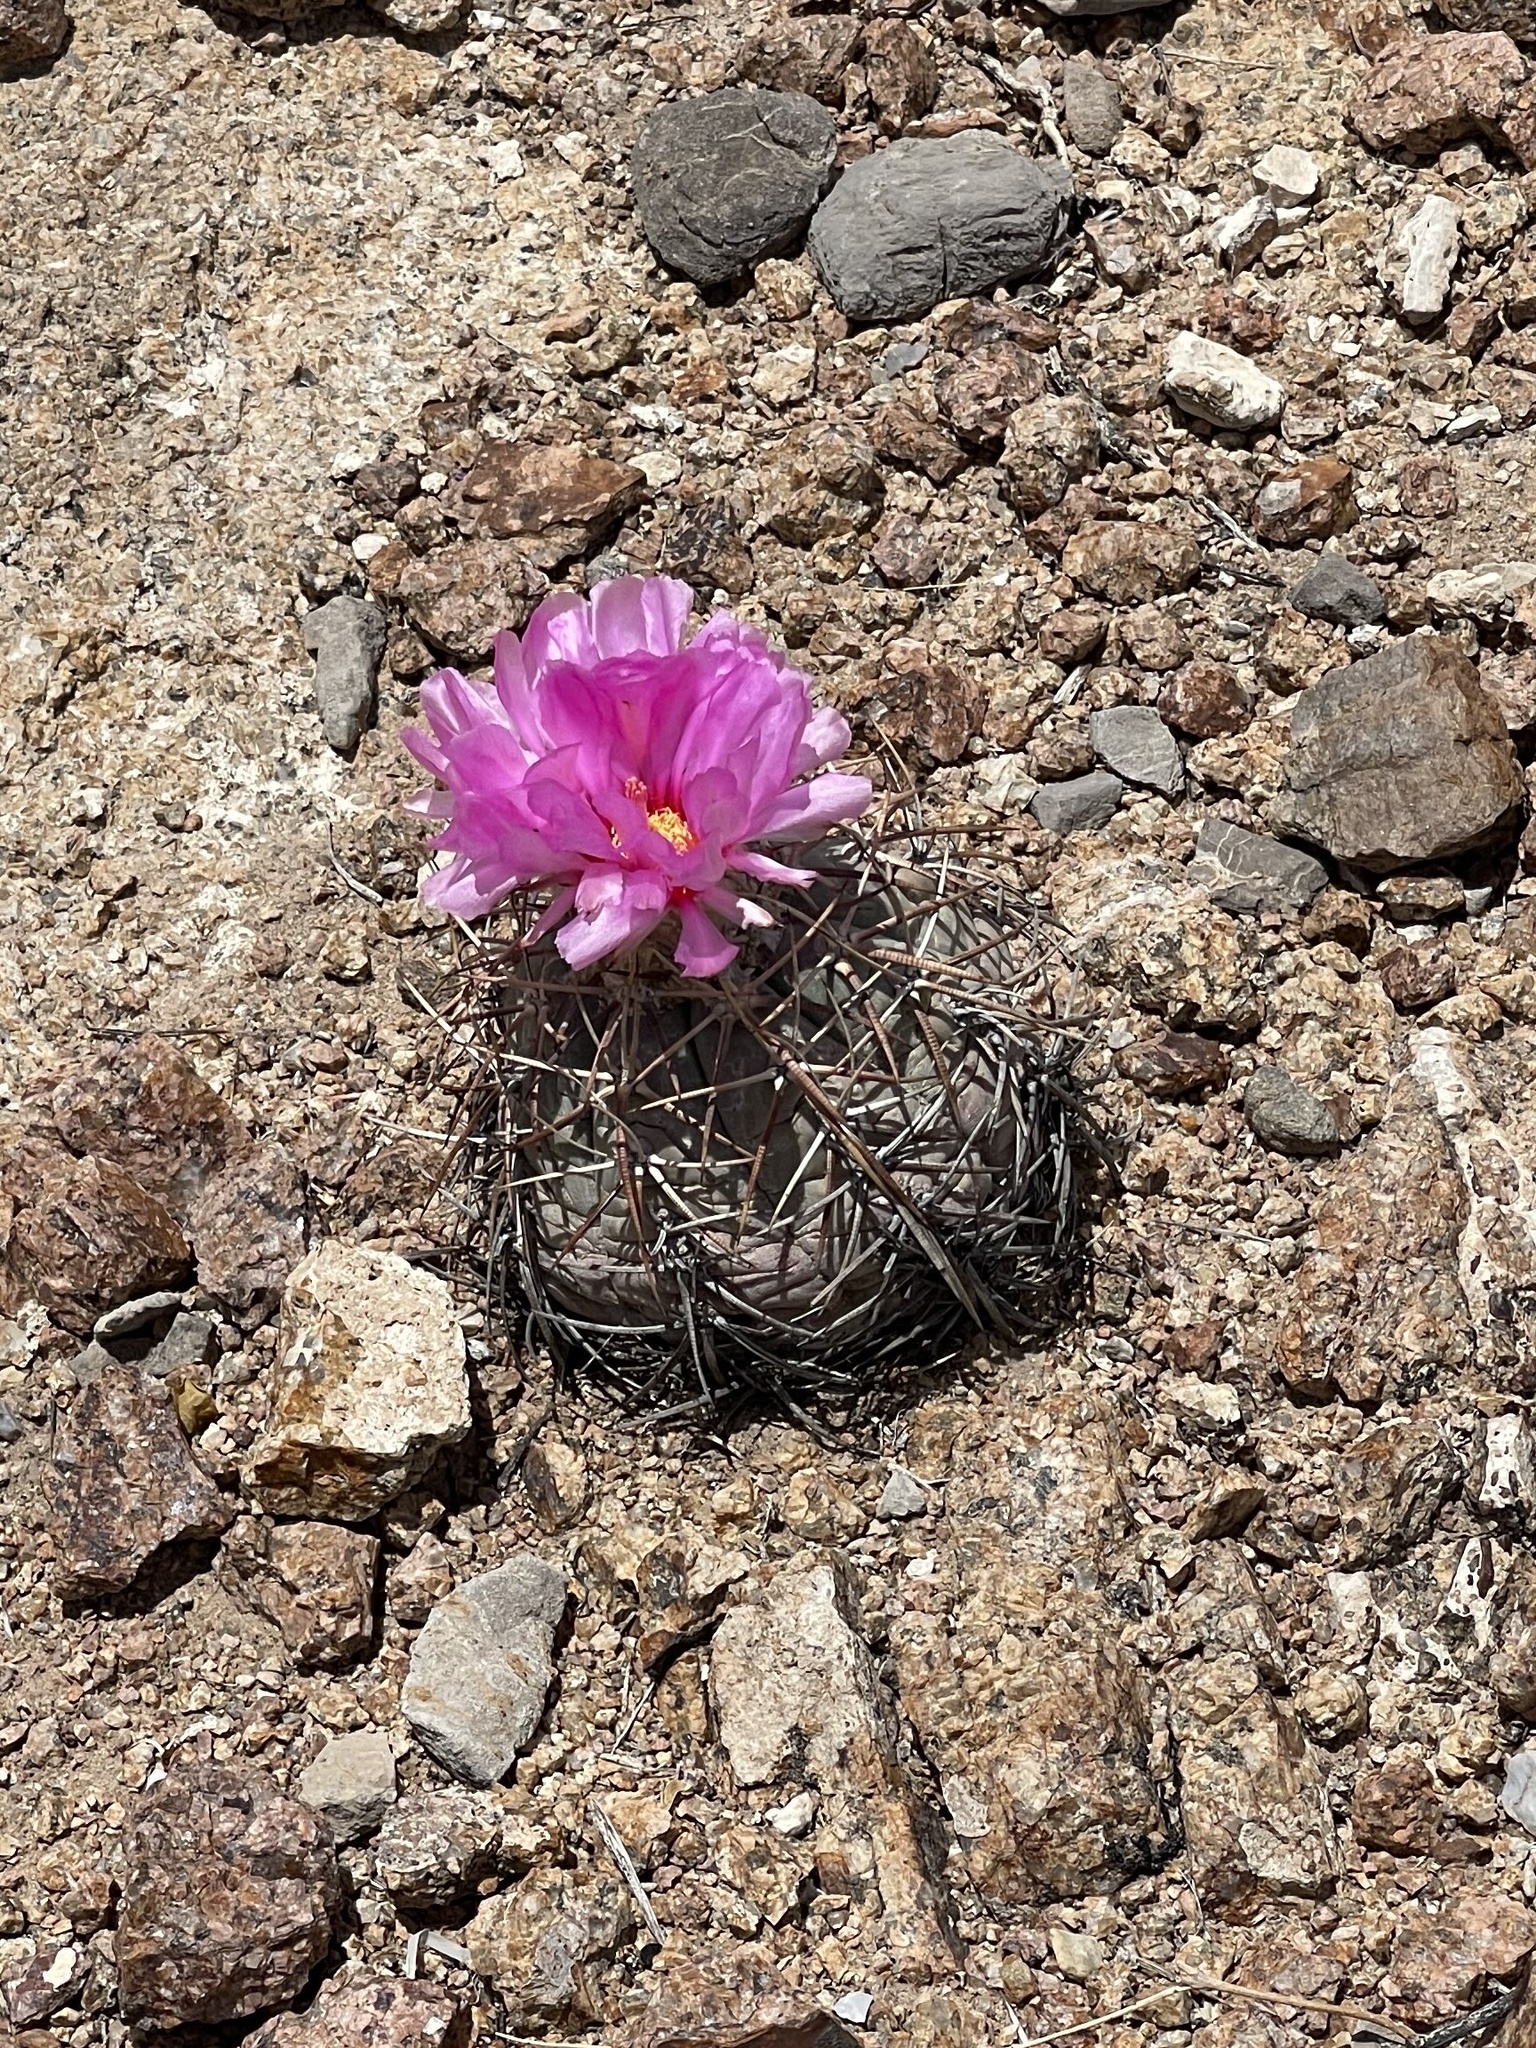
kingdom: Plantae
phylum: Tracheophyta
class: Magnoliopsida
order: Caryophyllales
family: Cactaceae
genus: Echinocactus
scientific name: Echinocactus horizonthalonius
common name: Devilshead
